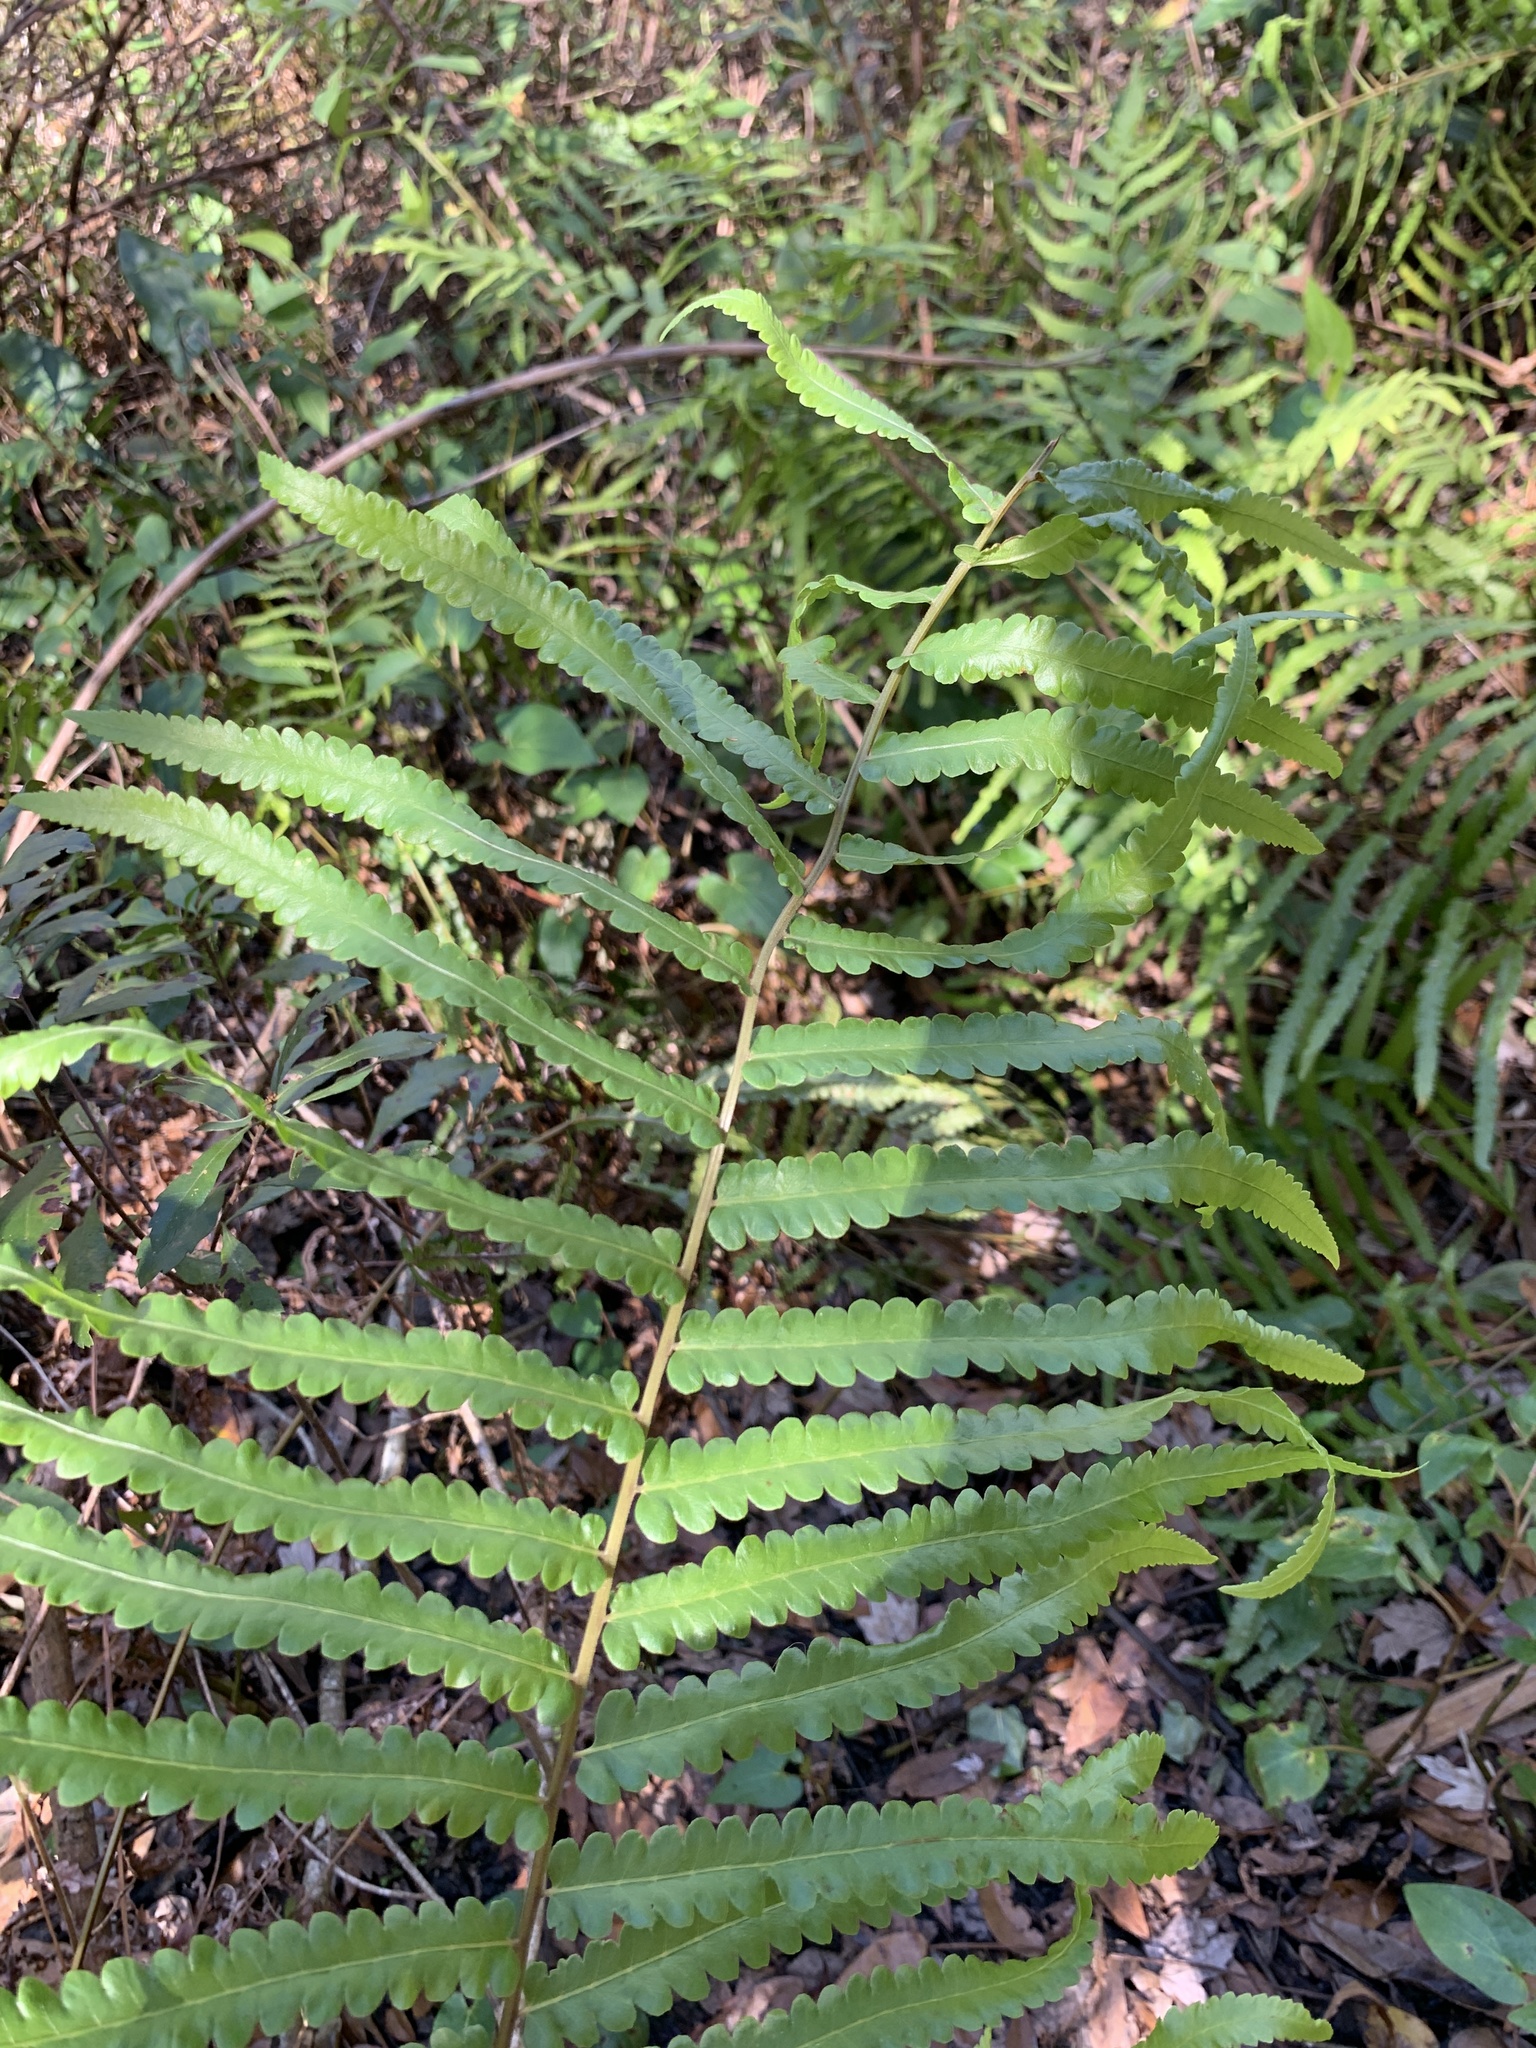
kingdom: Plantae
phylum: Tracheophyta
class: Polypodiopsida
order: Polypodiales
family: Thelypteridaceae
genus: Cyclosorus
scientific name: Cyclosorus interruptus
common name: Neke fern
